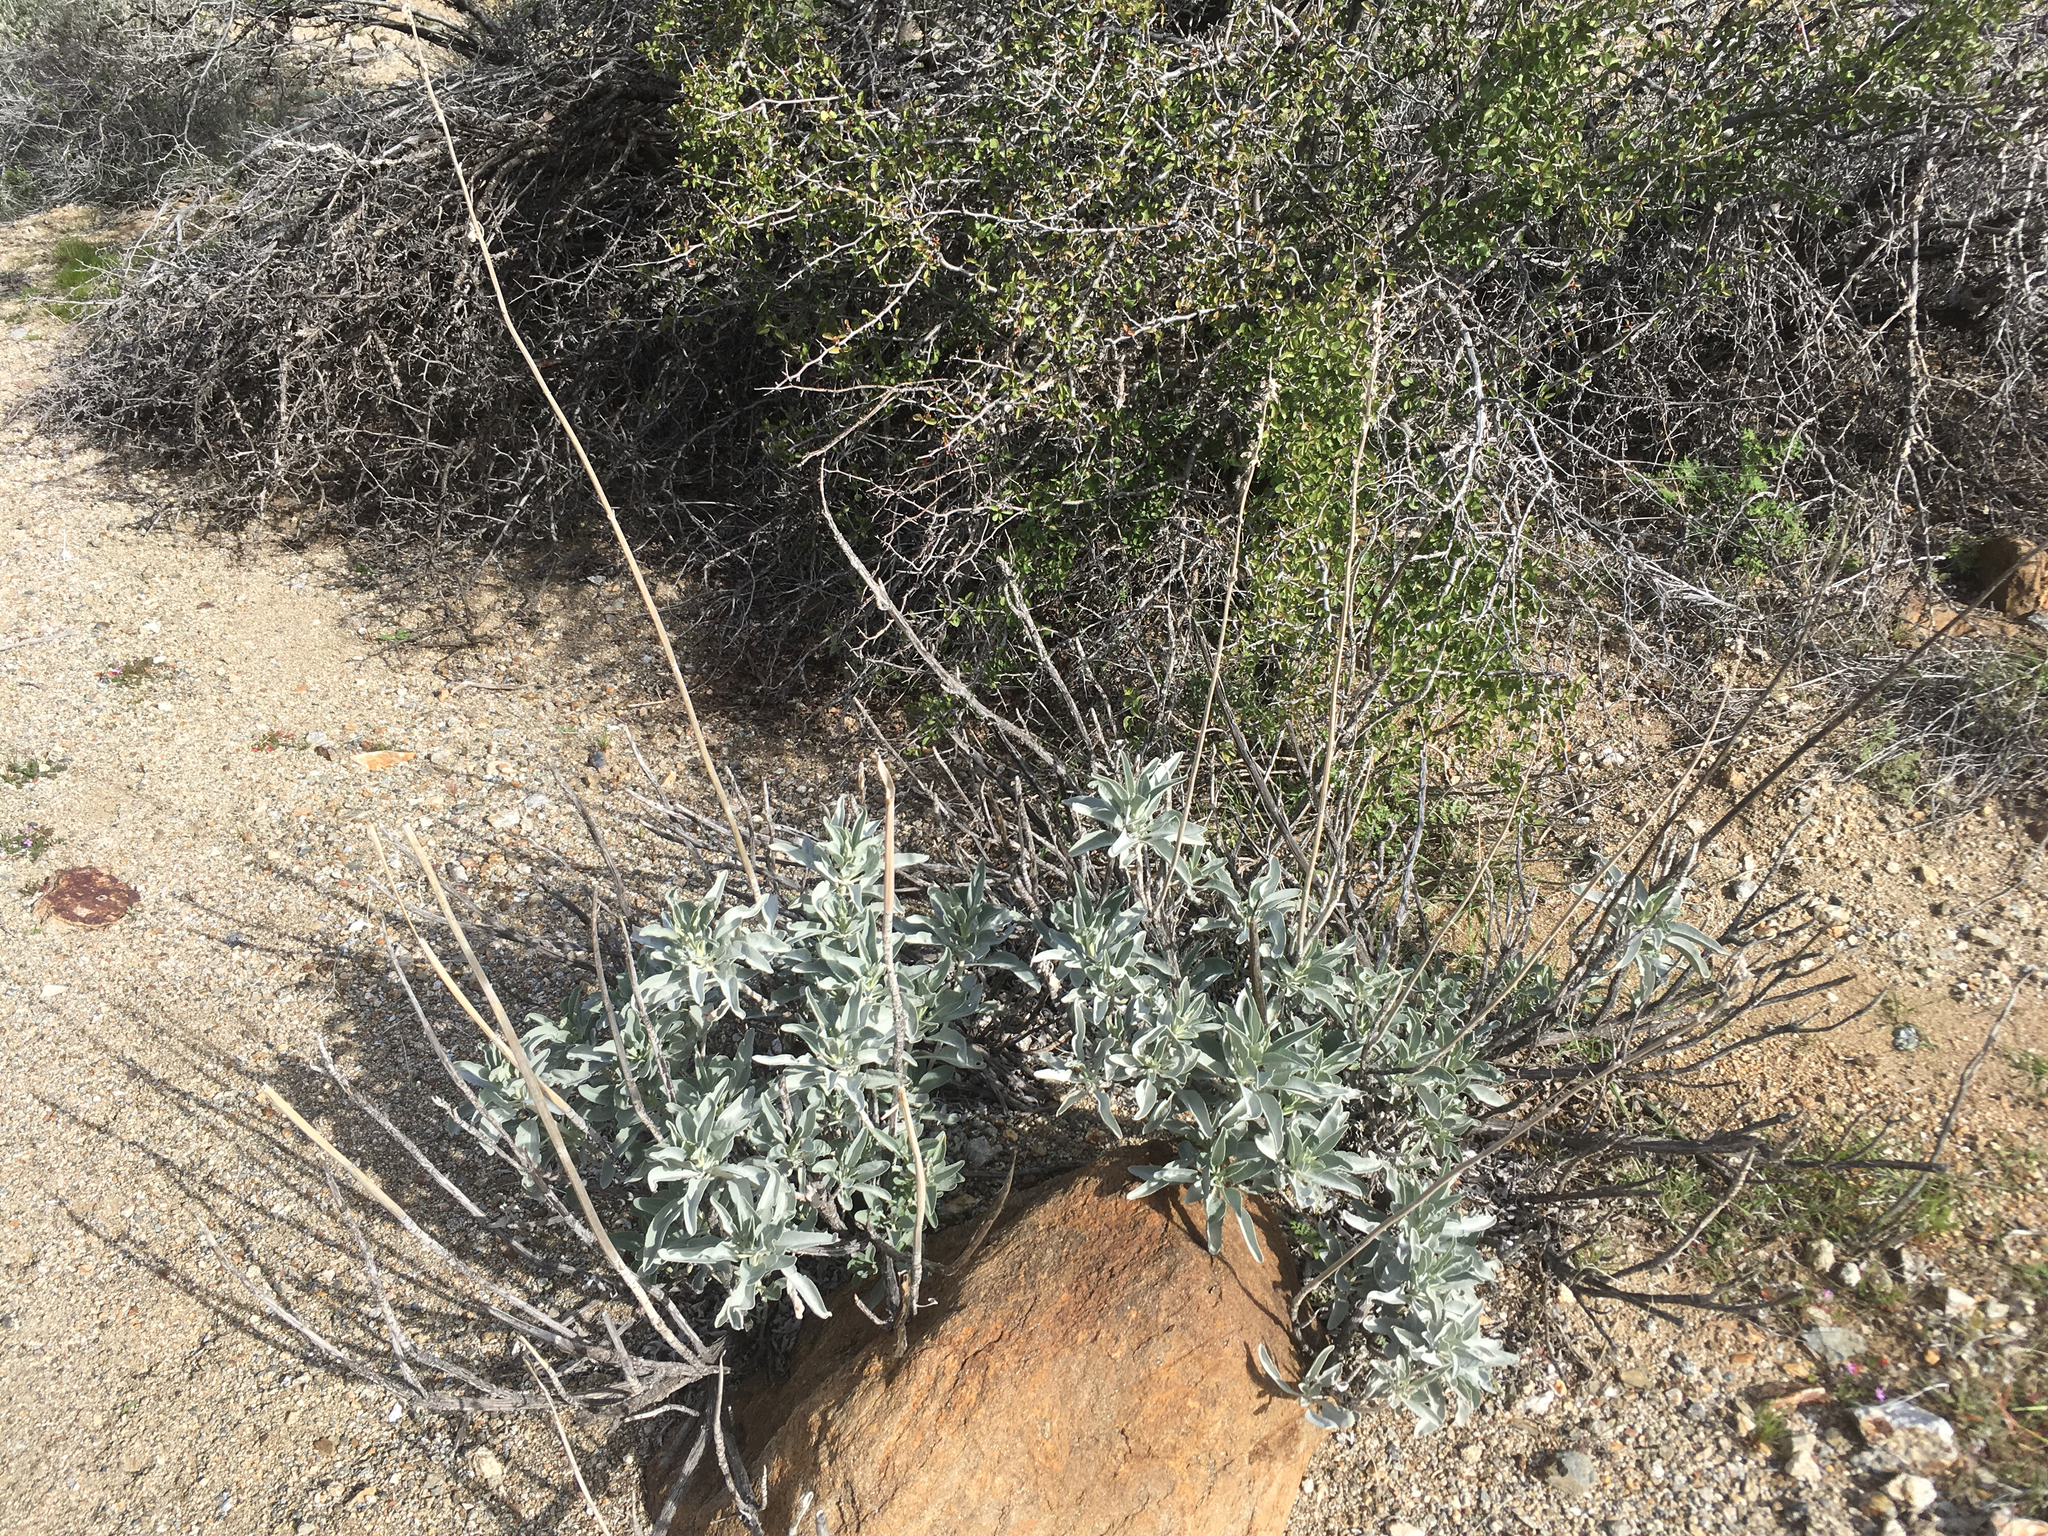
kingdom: Plantae
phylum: Tracheophyta
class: Magnoliopsida
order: Lamiales
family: Lamiaceae
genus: Salvia
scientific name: Salvia apiana
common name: White sage
